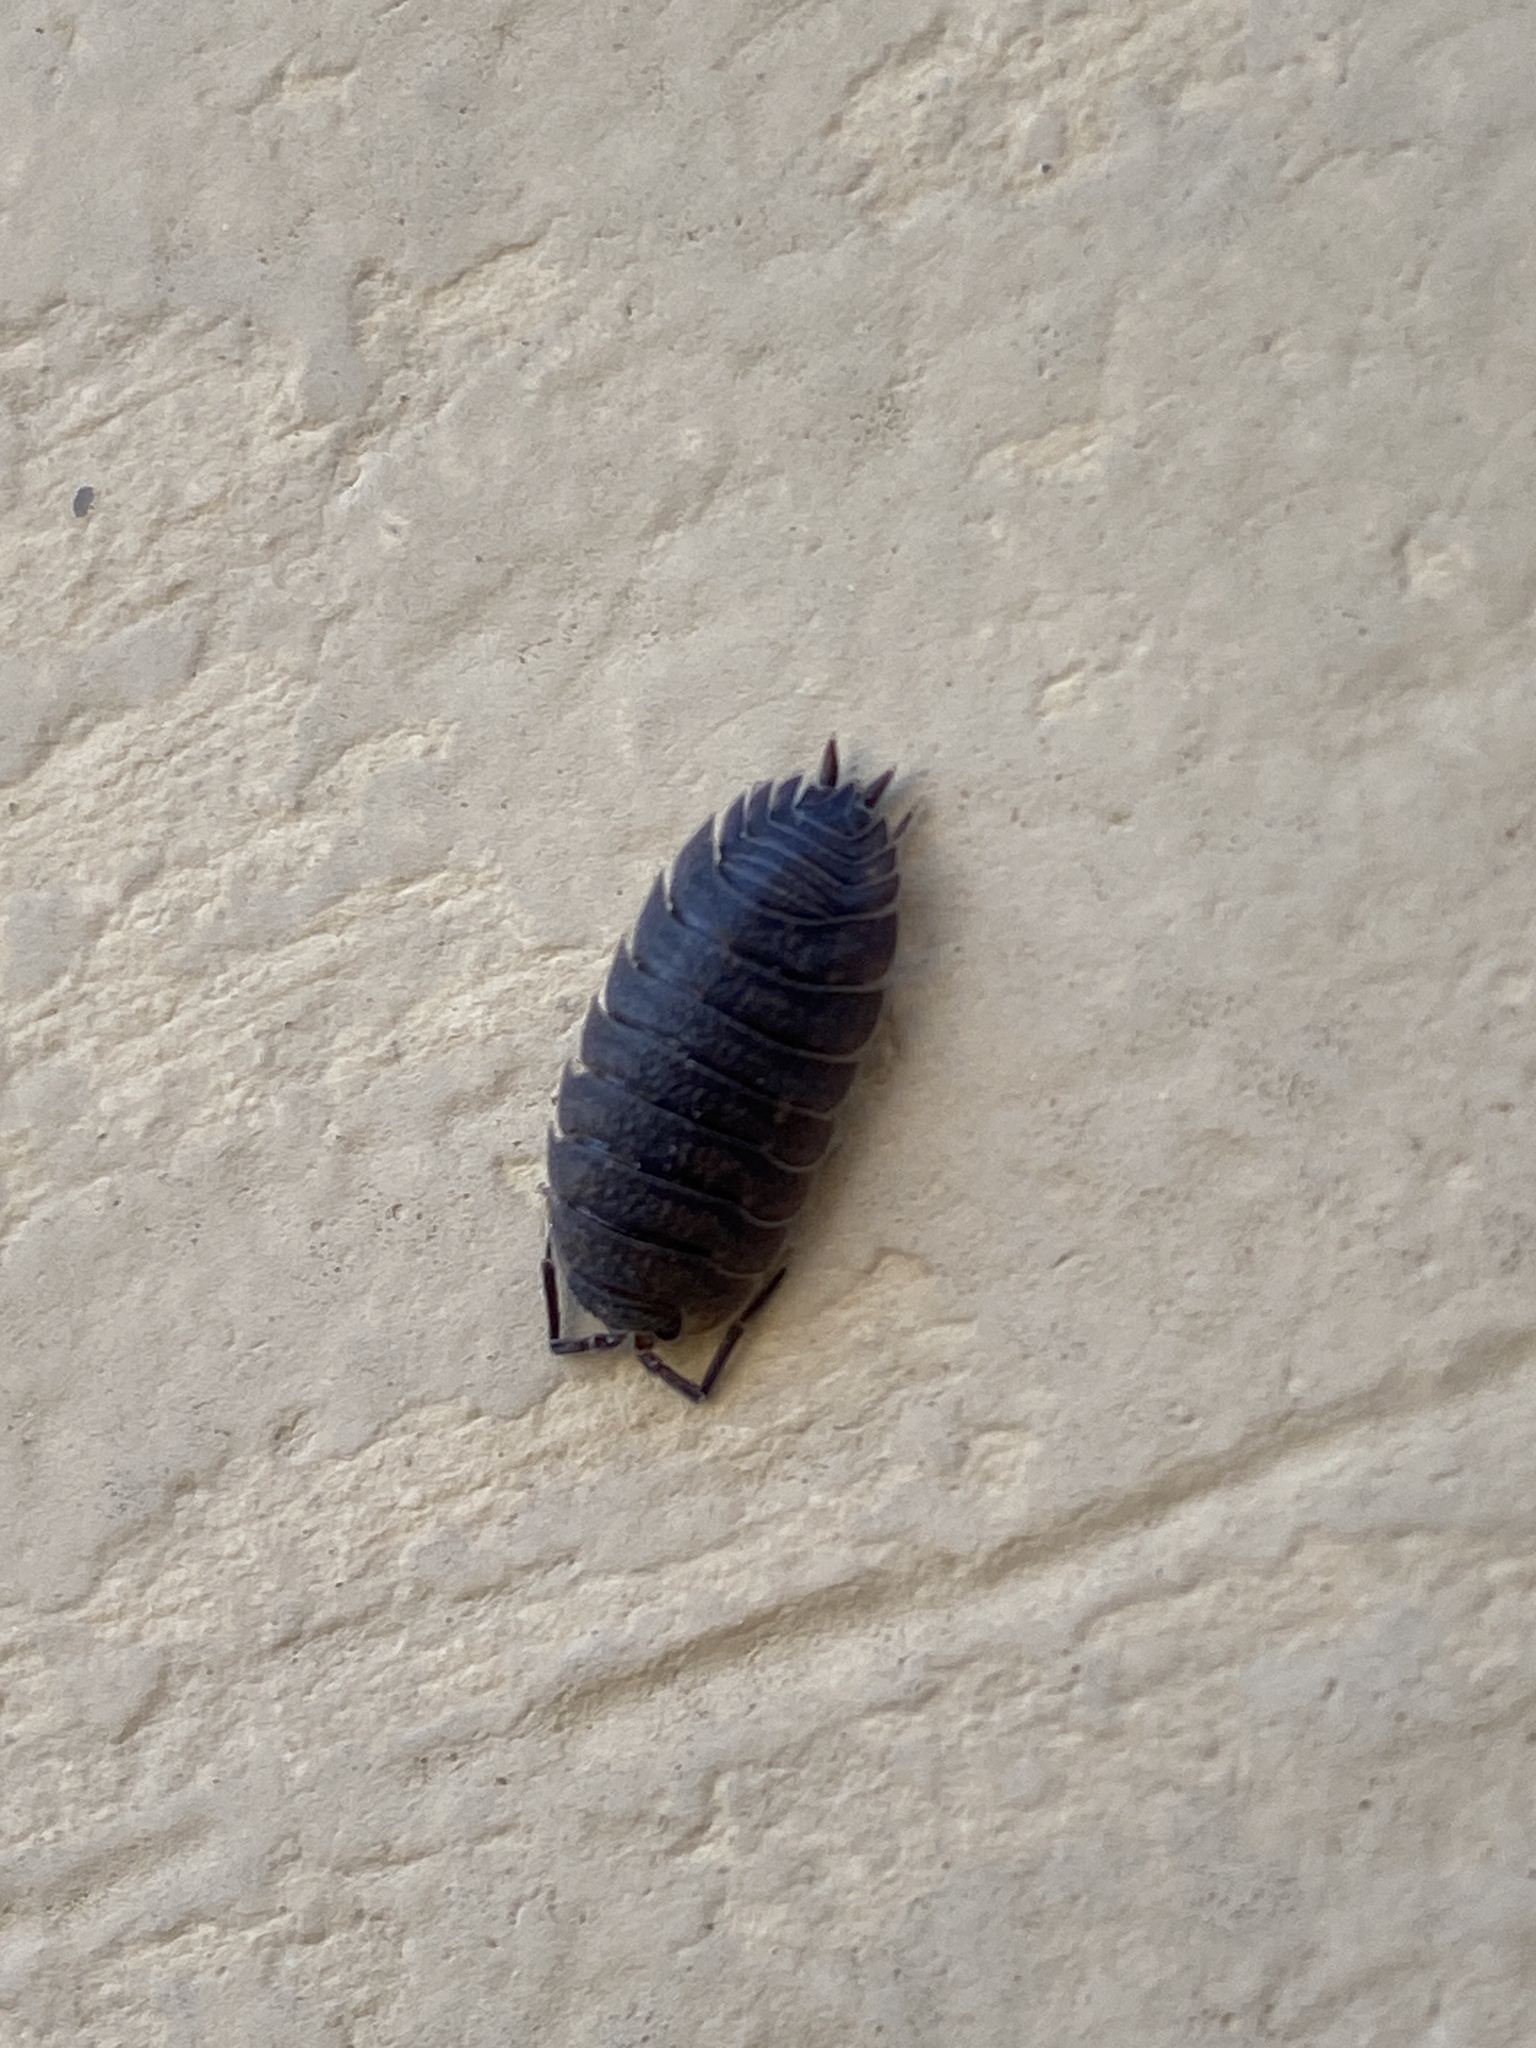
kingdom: Animalia
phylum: Arthropoda
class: Malacostraca
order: Isopoda
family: Porcellionidae
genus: Porcellio
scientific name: Porcellio scaber
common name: Common rough woodlouse
